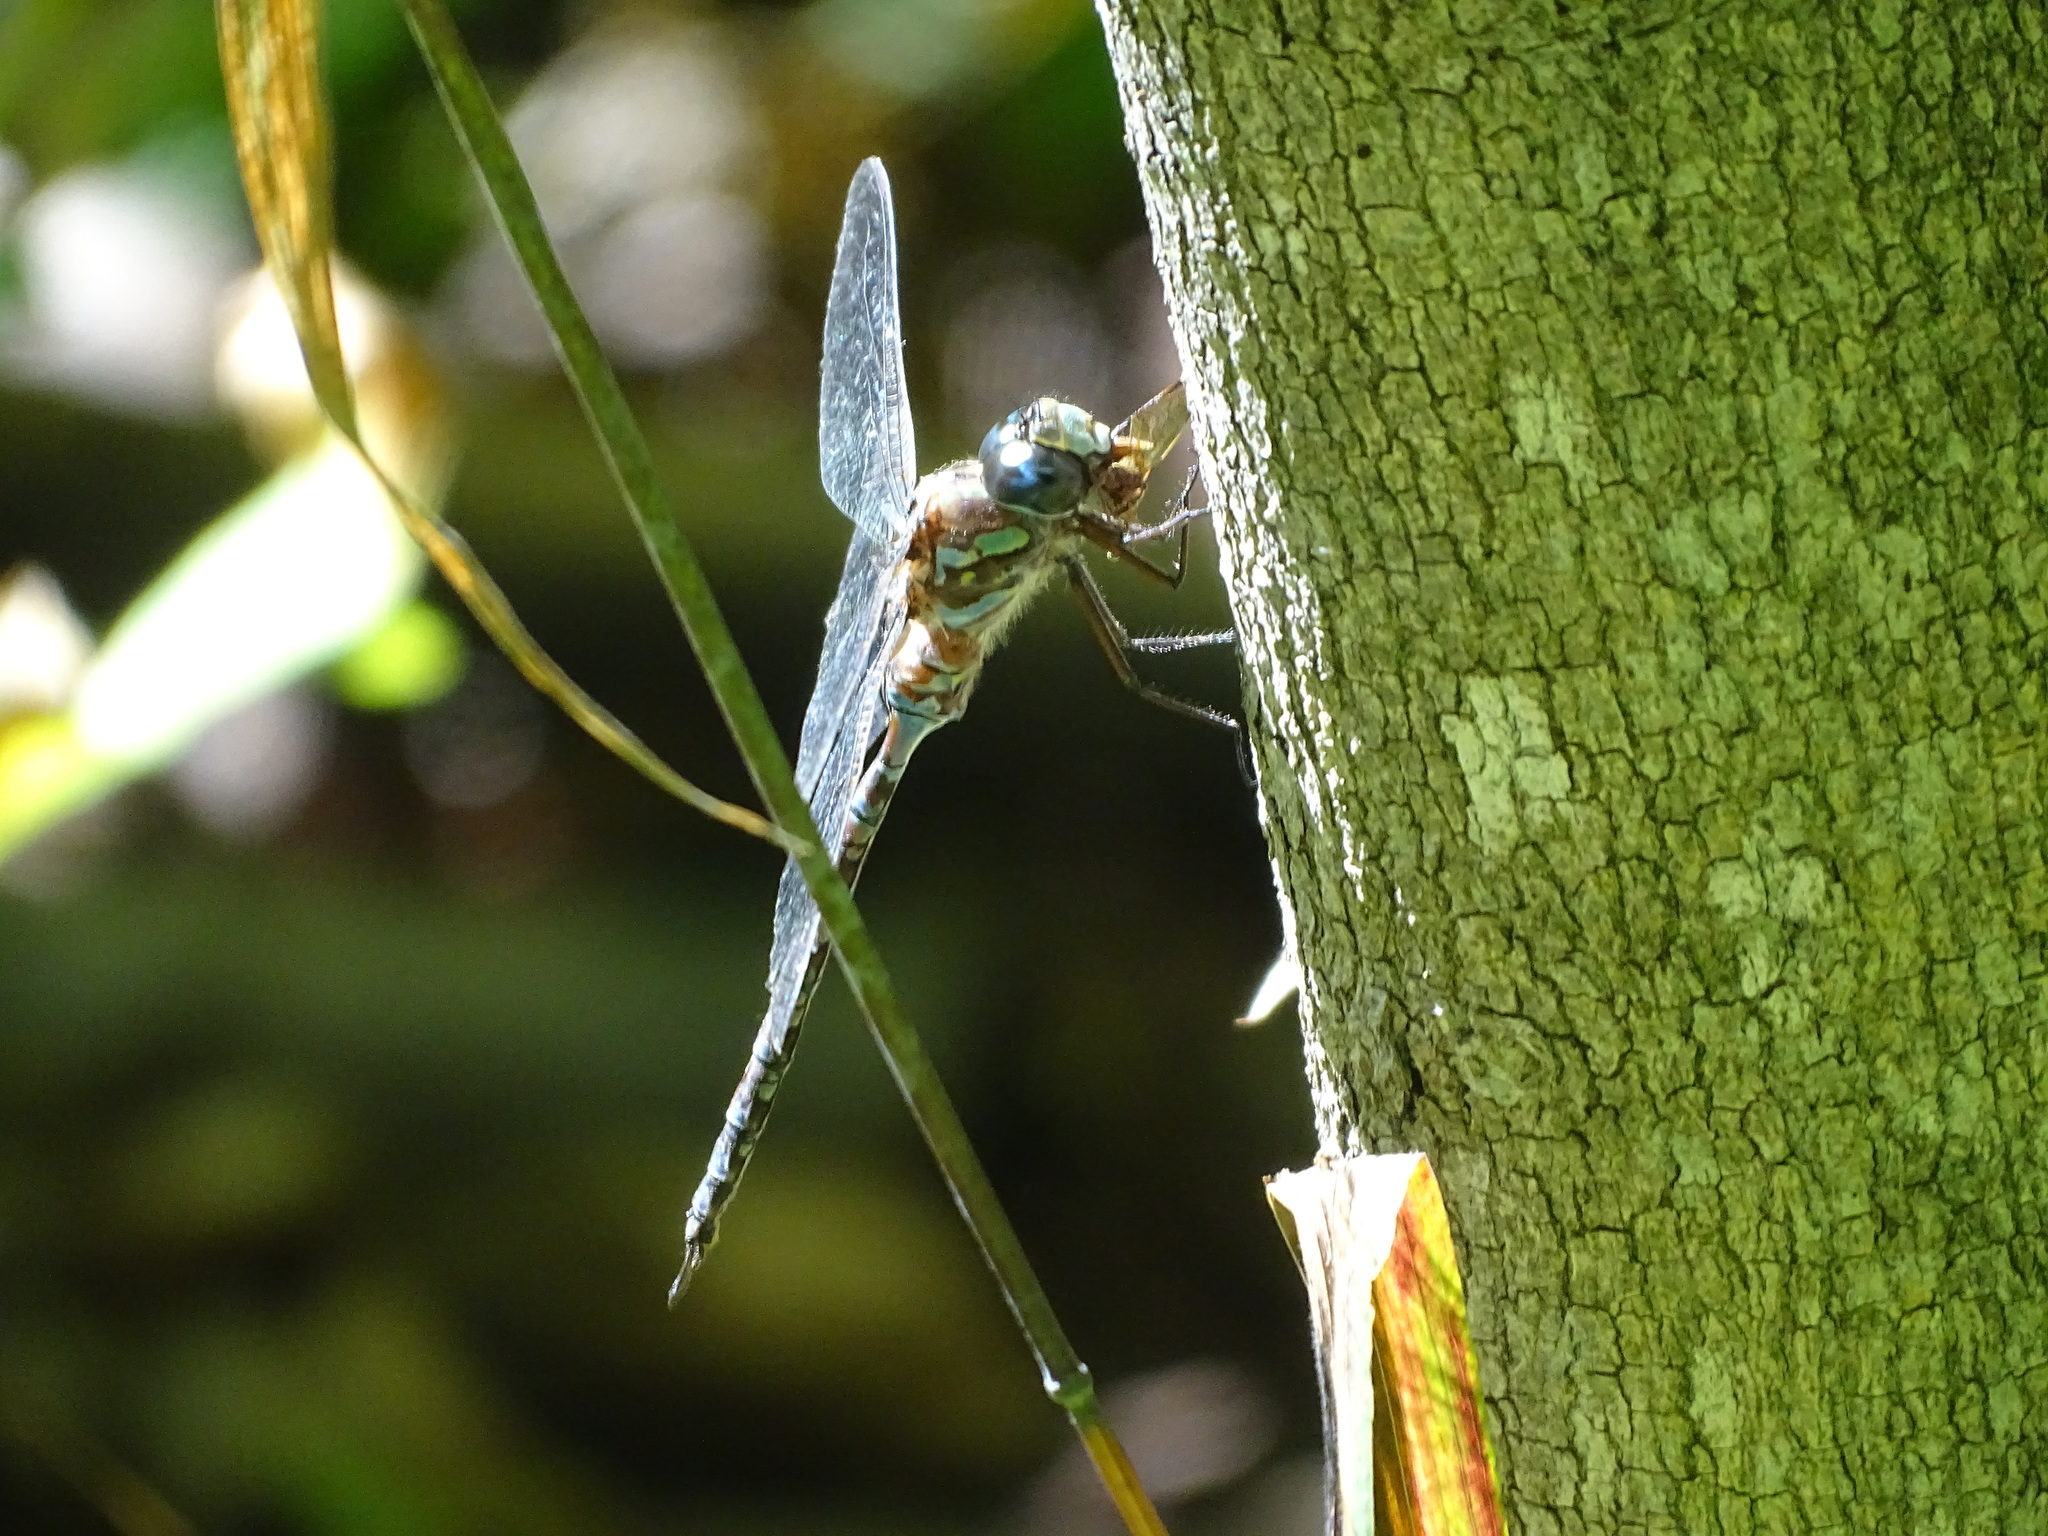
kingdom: Animalia
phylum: Arthropoda
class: Insecta
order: Odonata
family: Aeshnidae
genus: Aeshna
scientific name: Aeshna canadensis
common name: Canada darner
